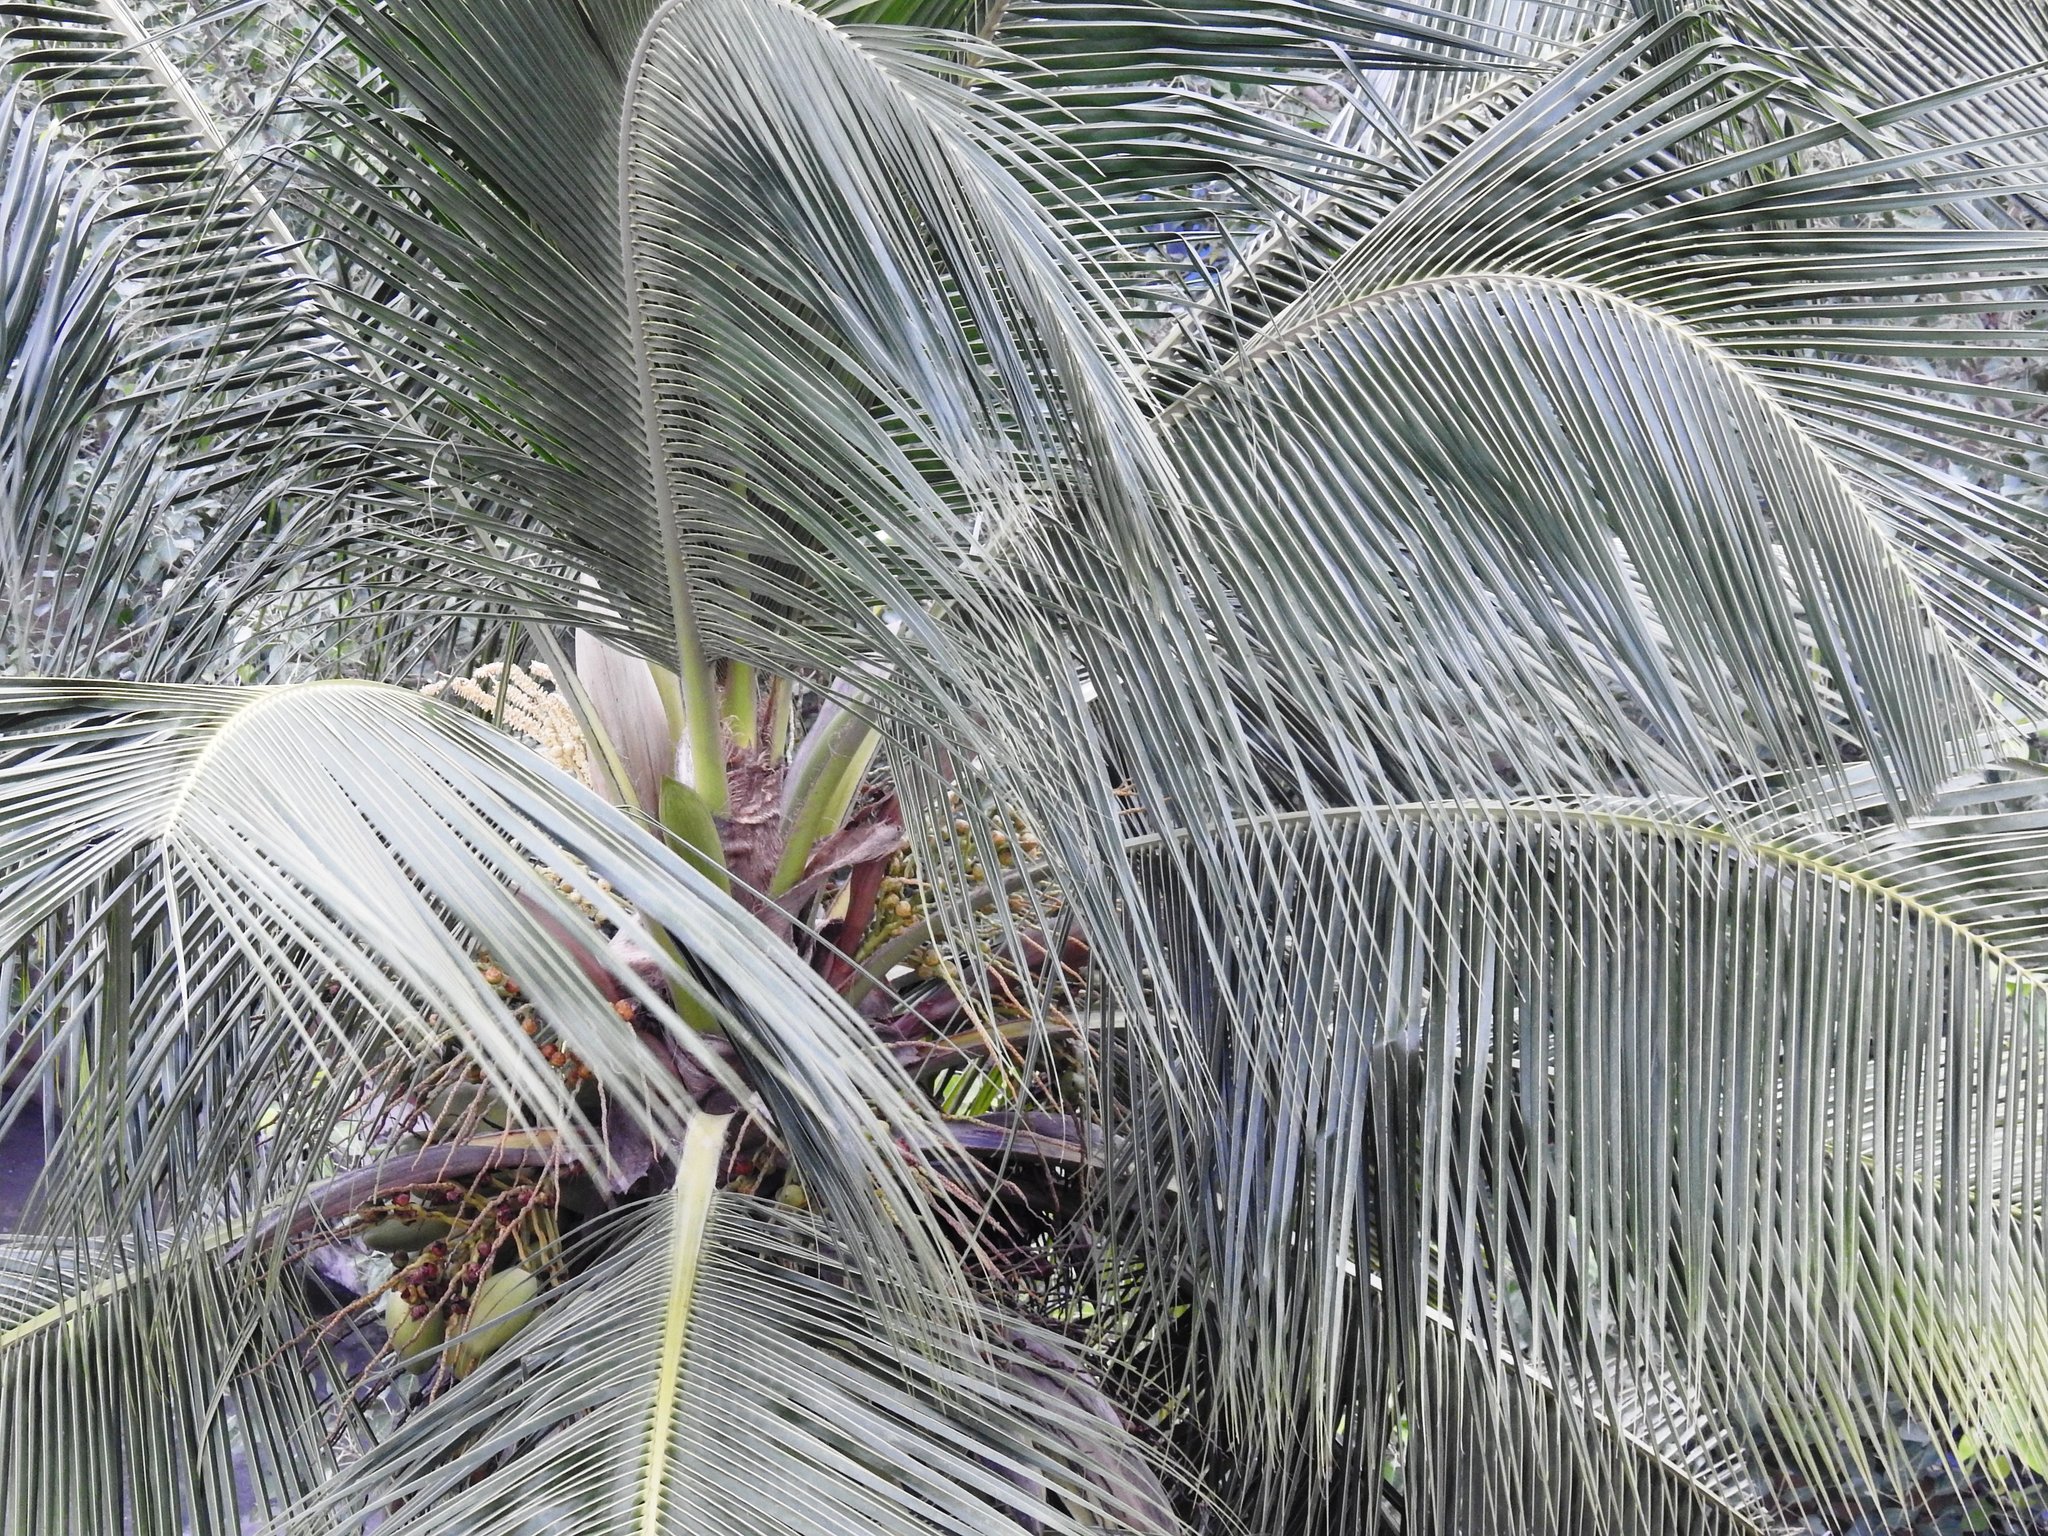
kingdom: Plantae
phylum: Tracheophyta
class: Liliopsida
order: Arecales
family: Arecaceae
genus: Cocos
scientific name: Cocos nucifera
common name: Coconut palm
